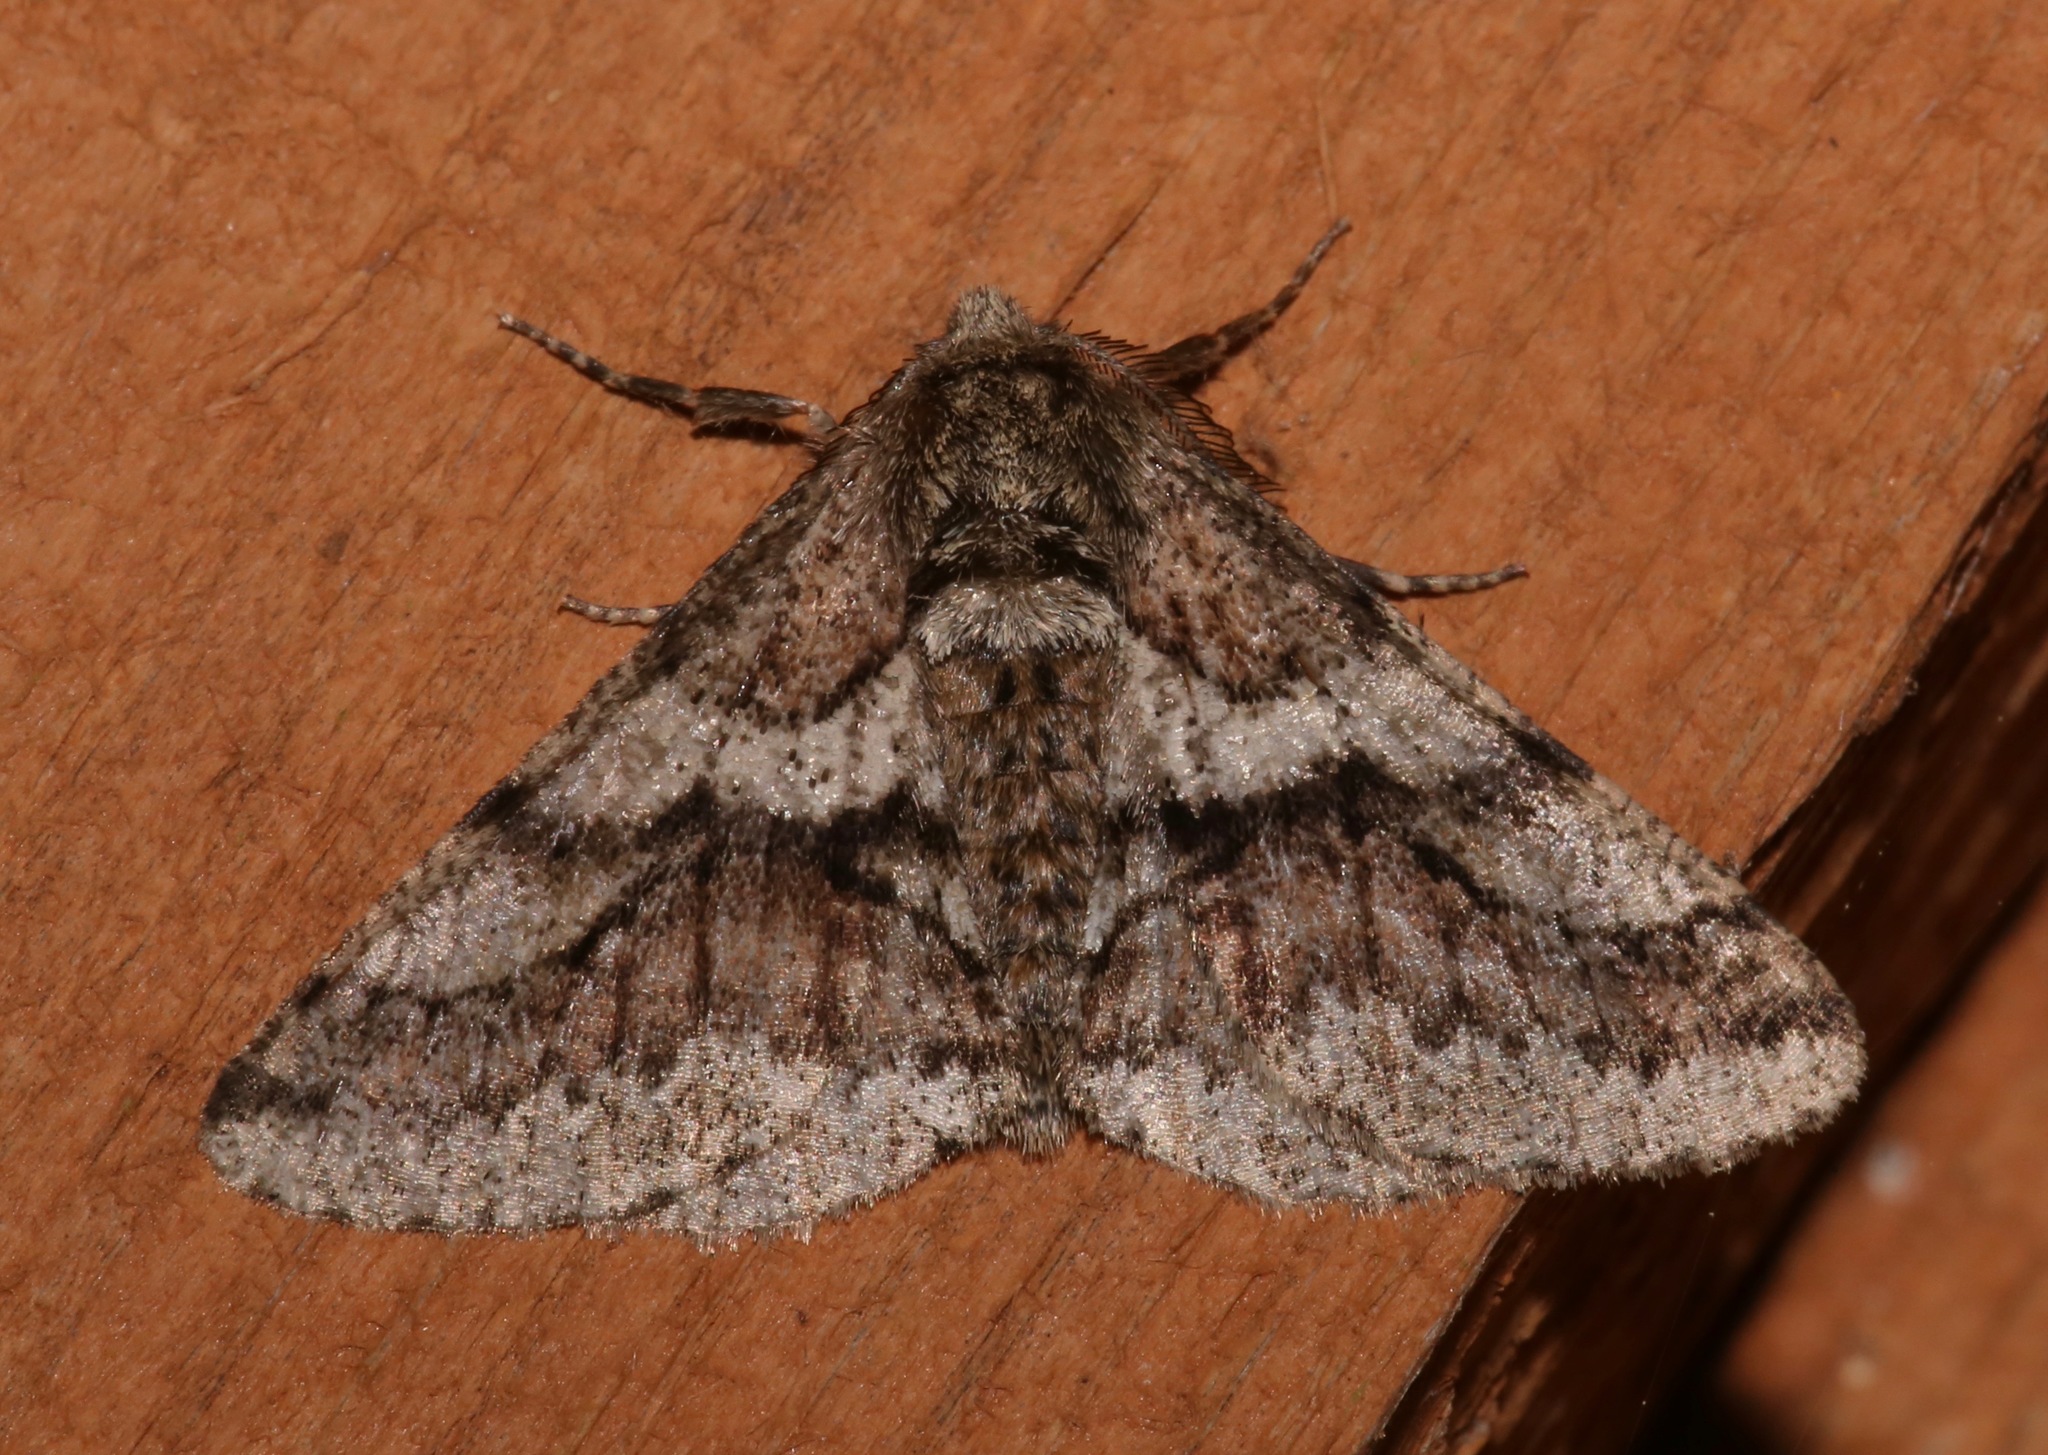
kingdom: Animalia
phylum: Arthropoda
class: Insecta
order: Lepidoptera
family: Geometridae
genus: Lycia
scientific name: Lycia ypsilon
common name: Wooly gray
